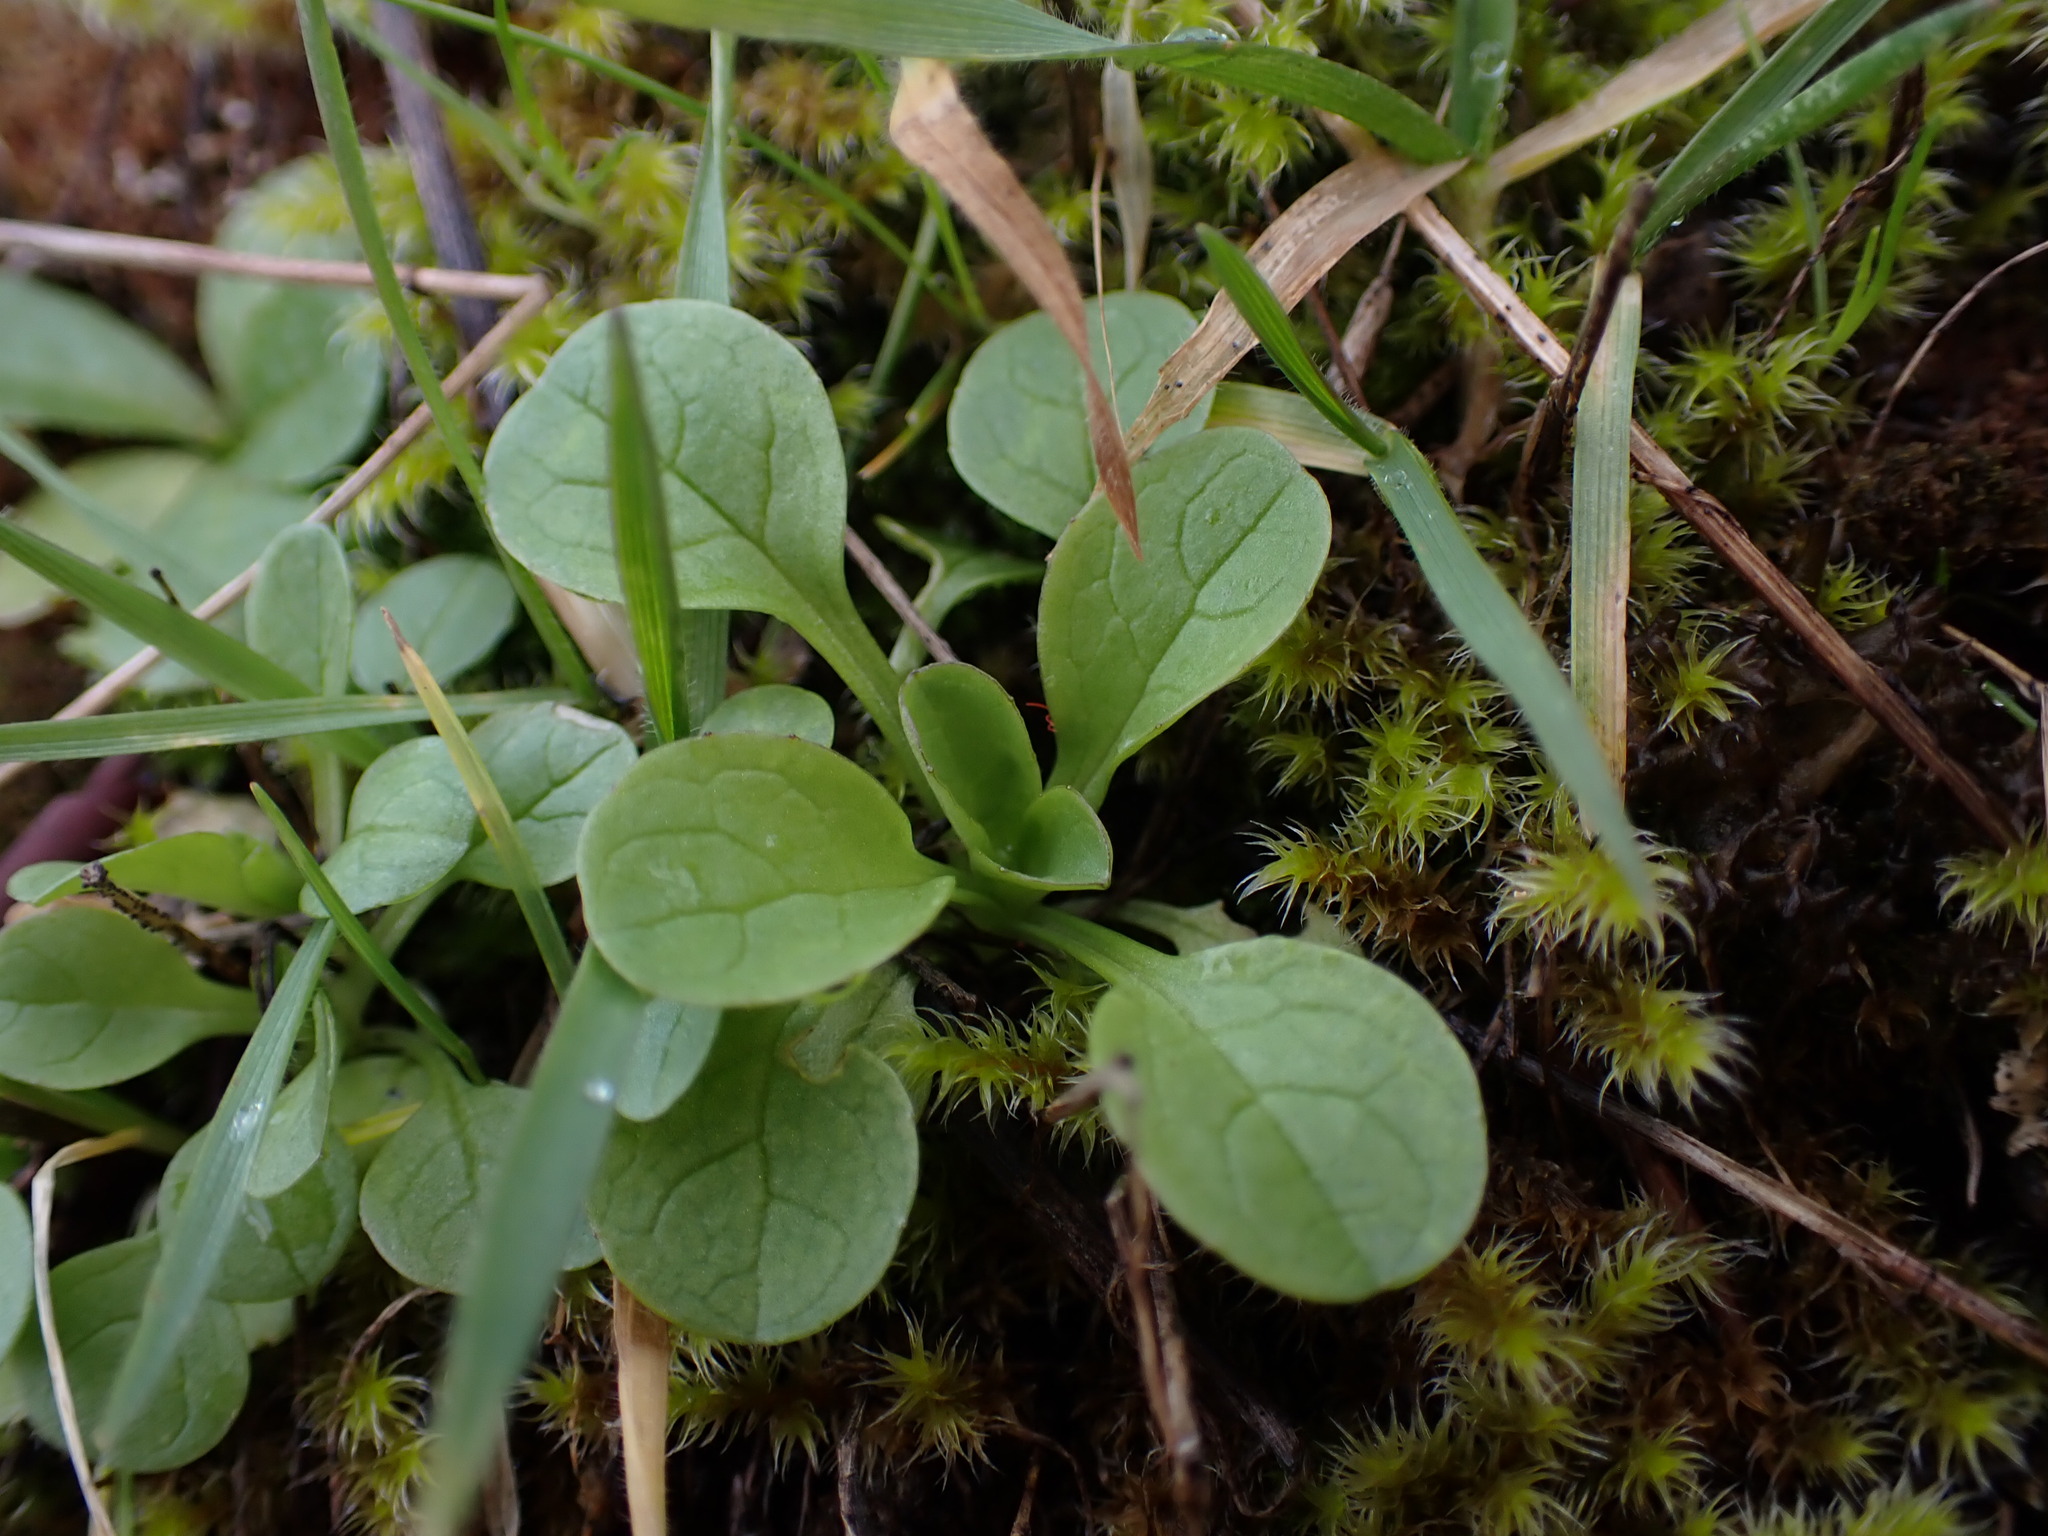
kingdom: Plantae
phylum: Tracheophyta
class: Magnoliopsida
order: Dipsacales
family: Caprifoliaceae
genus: Plectritis
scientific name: Plectritis congesta
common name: Pink plectritis
